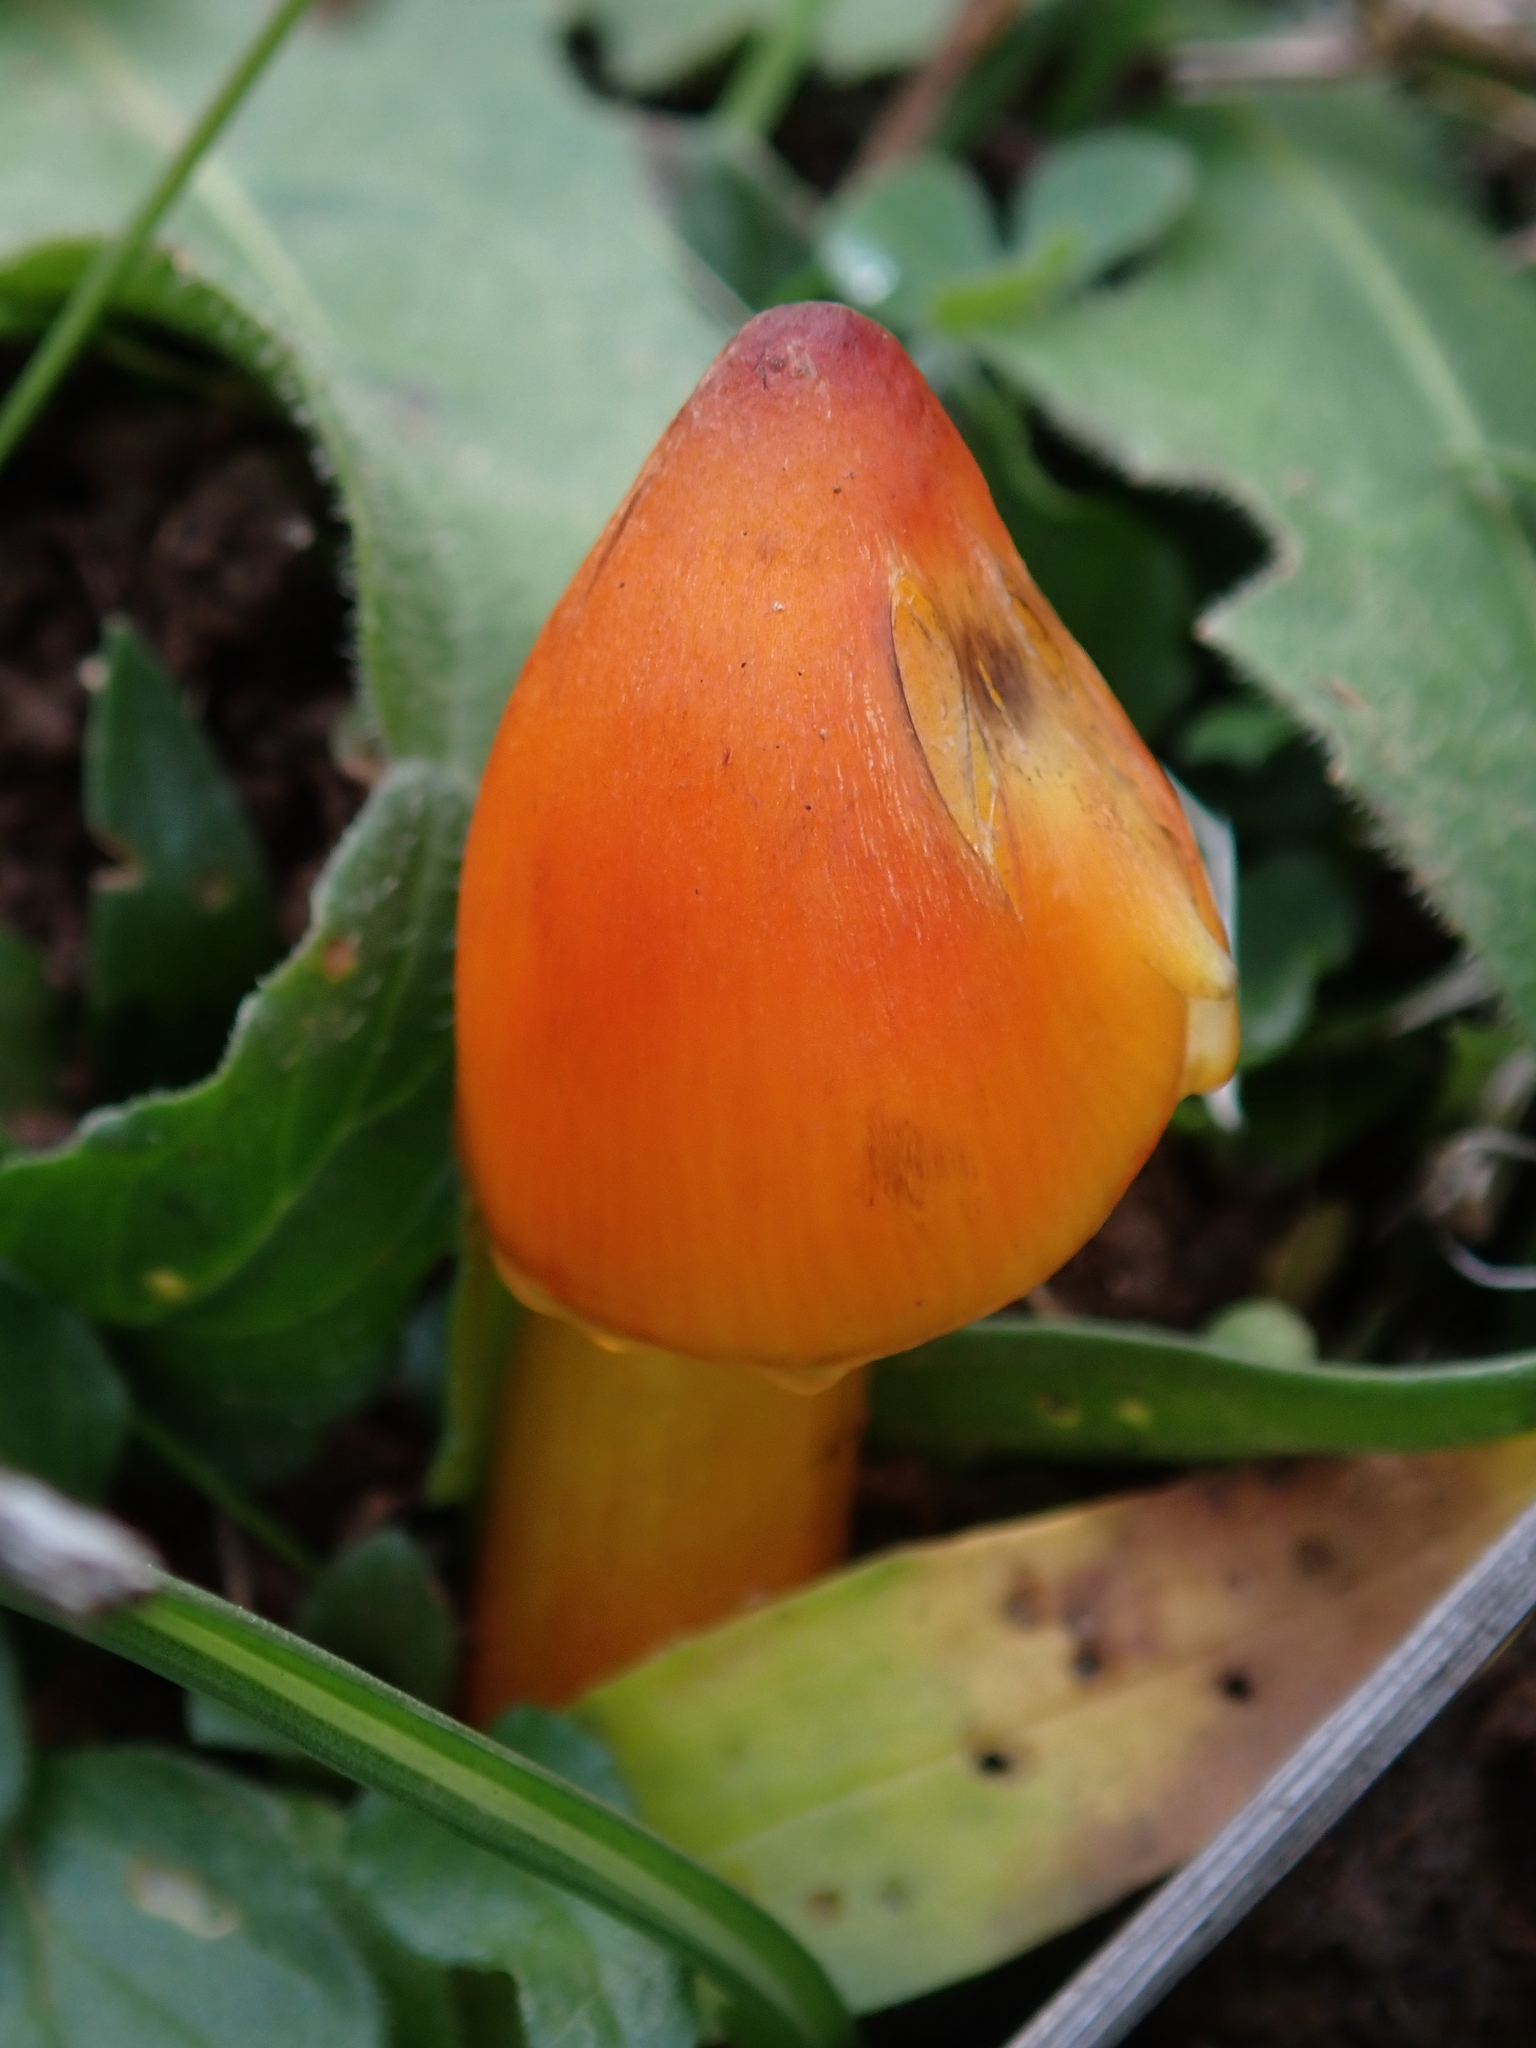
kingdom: Fungi
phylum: Basidiomycota
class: Agaricomycetes
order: Agaricales
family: Hygrophoraceae
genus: Hygrocybe
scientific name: Hygrocybe conica
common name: Blackening wax-cap
